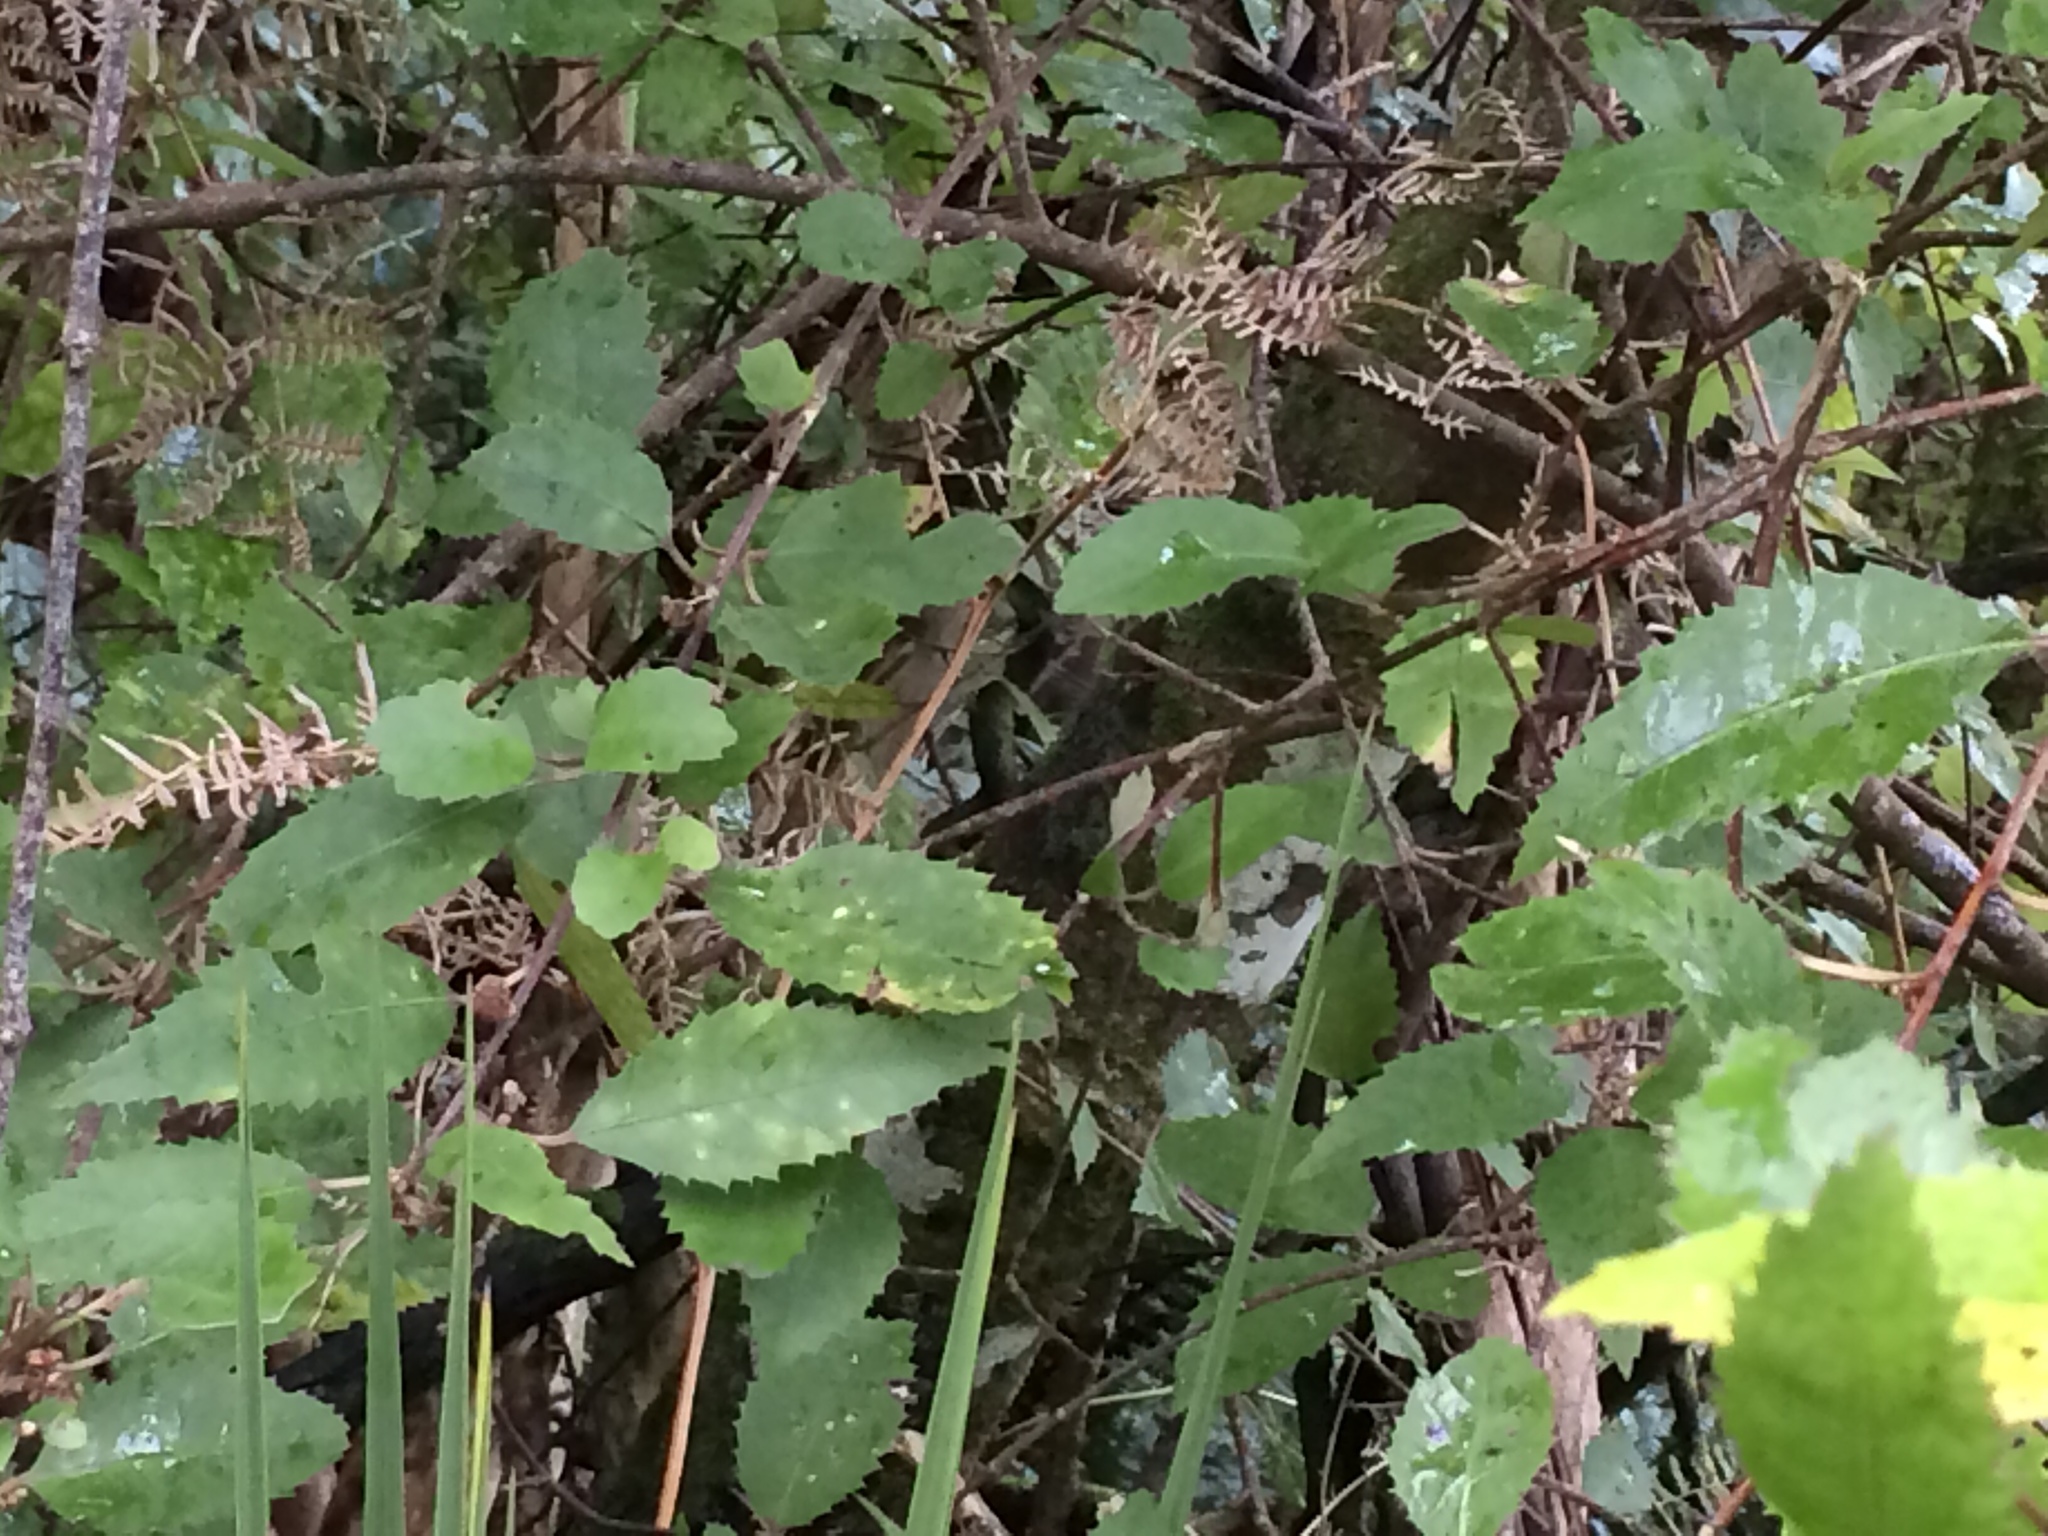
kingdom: Plantae
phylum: Tracheophyta
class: Magnoliopsida
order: Malvales
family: Malvaceae
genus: Hoheria
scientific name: Hoheria sexstylosa
